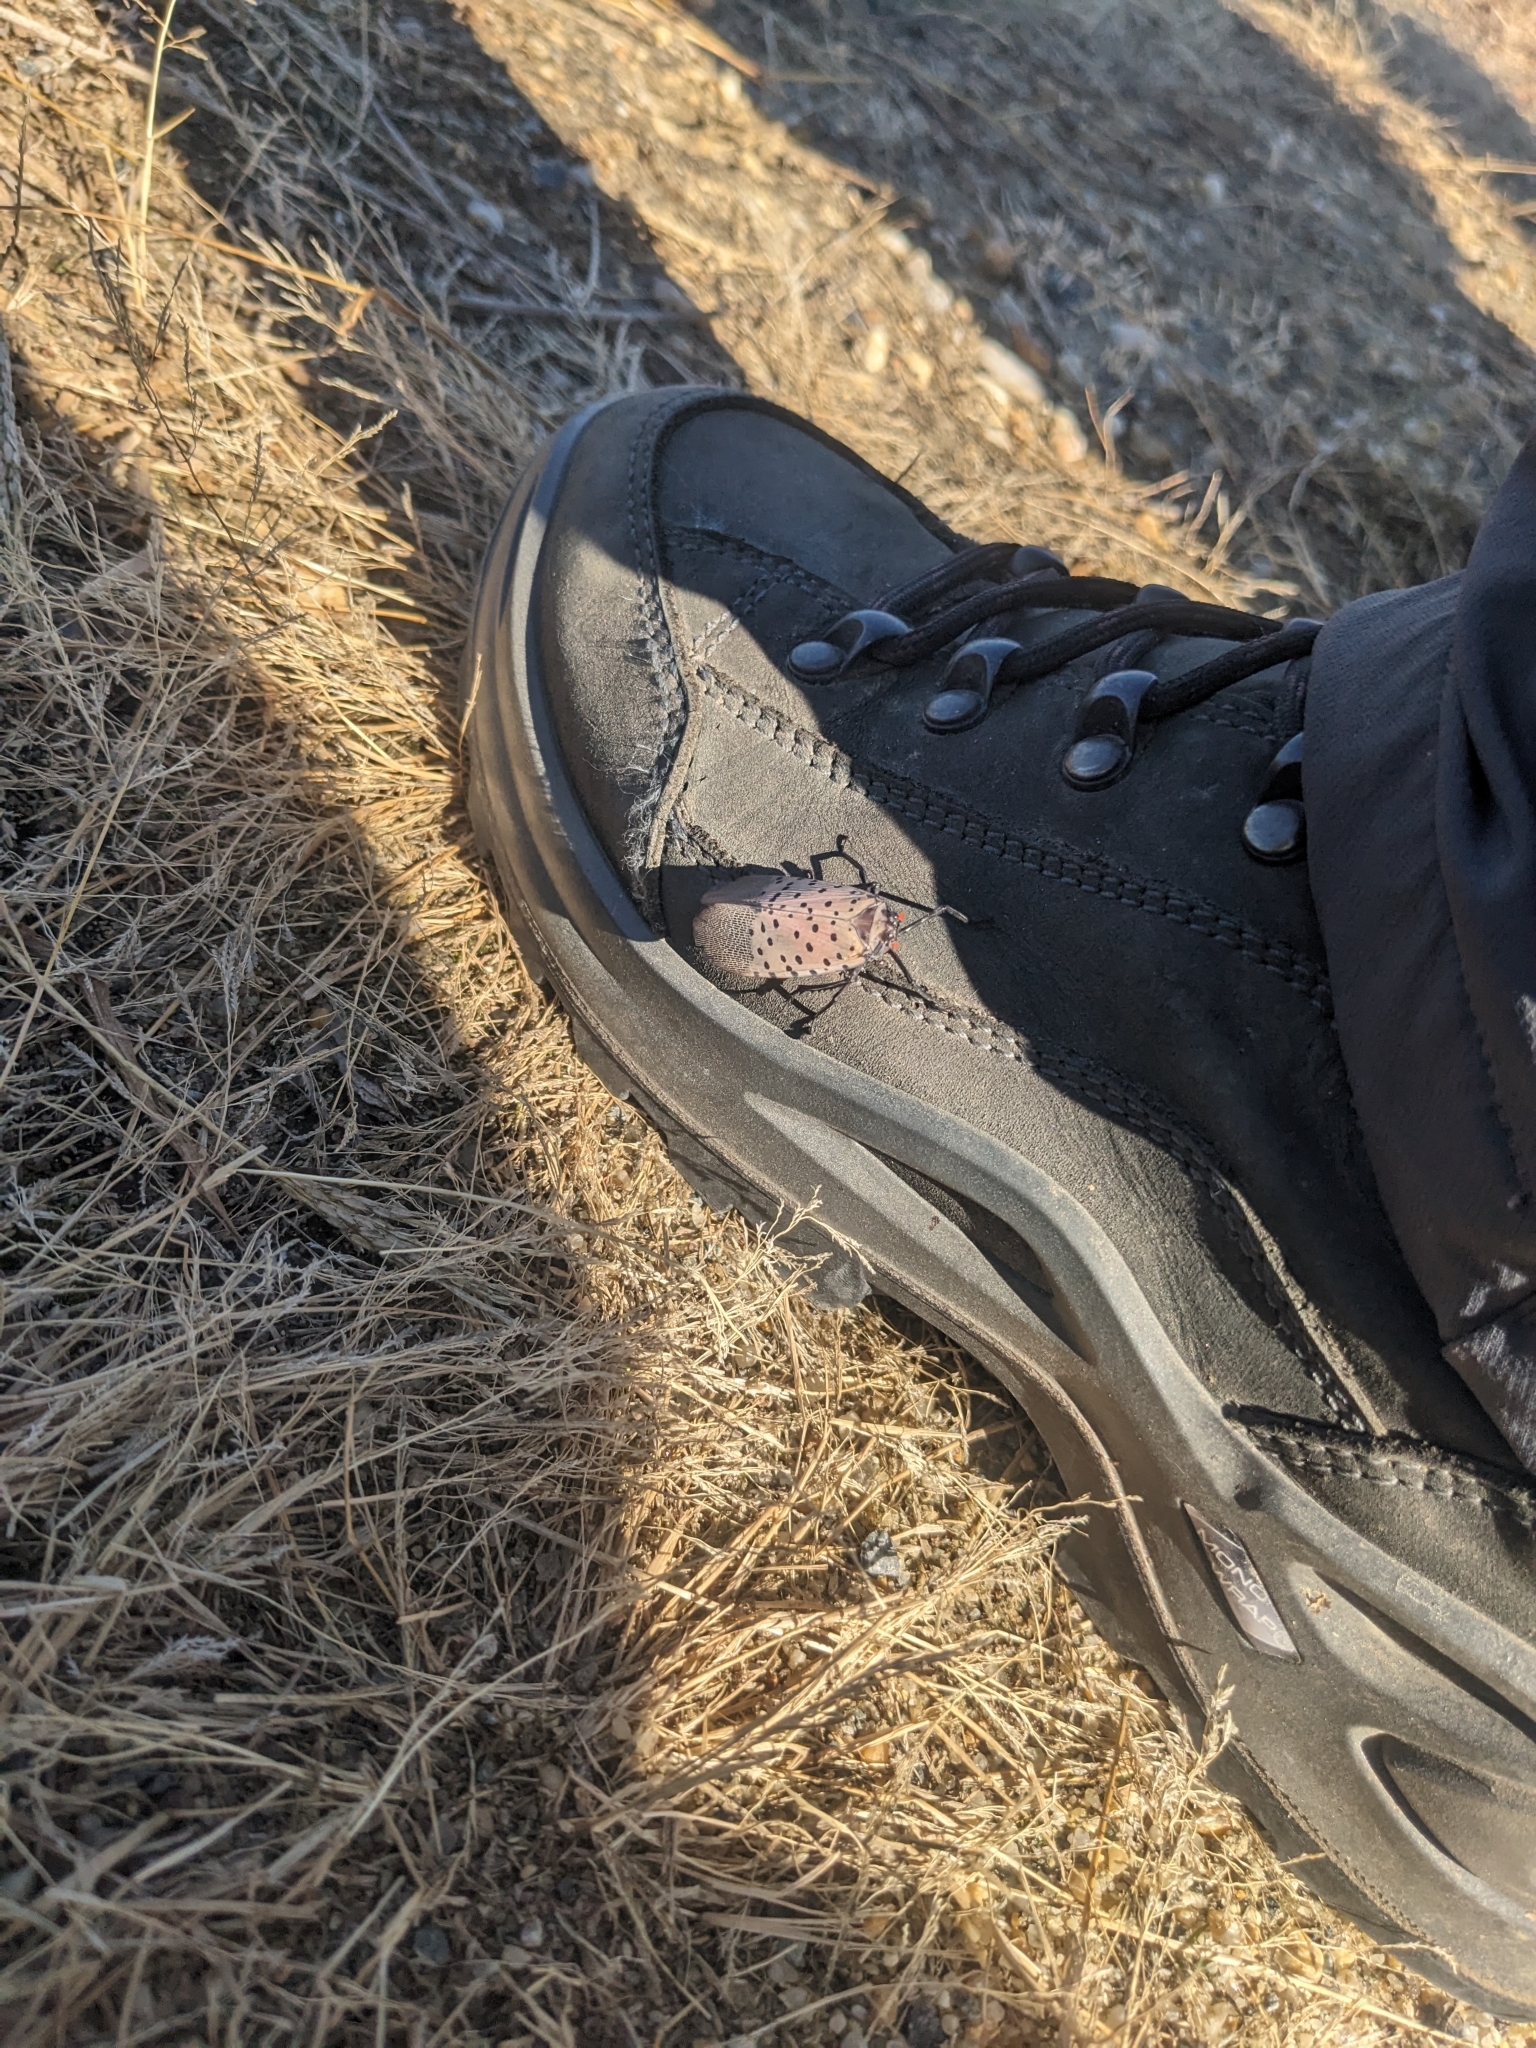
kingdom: Animalia
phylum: Arthropoda
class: Insecta
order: Hemiptera
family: Fulgoridae
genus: Lycorma
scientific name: Lycorma delicatula
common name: Spotted lanternfly
